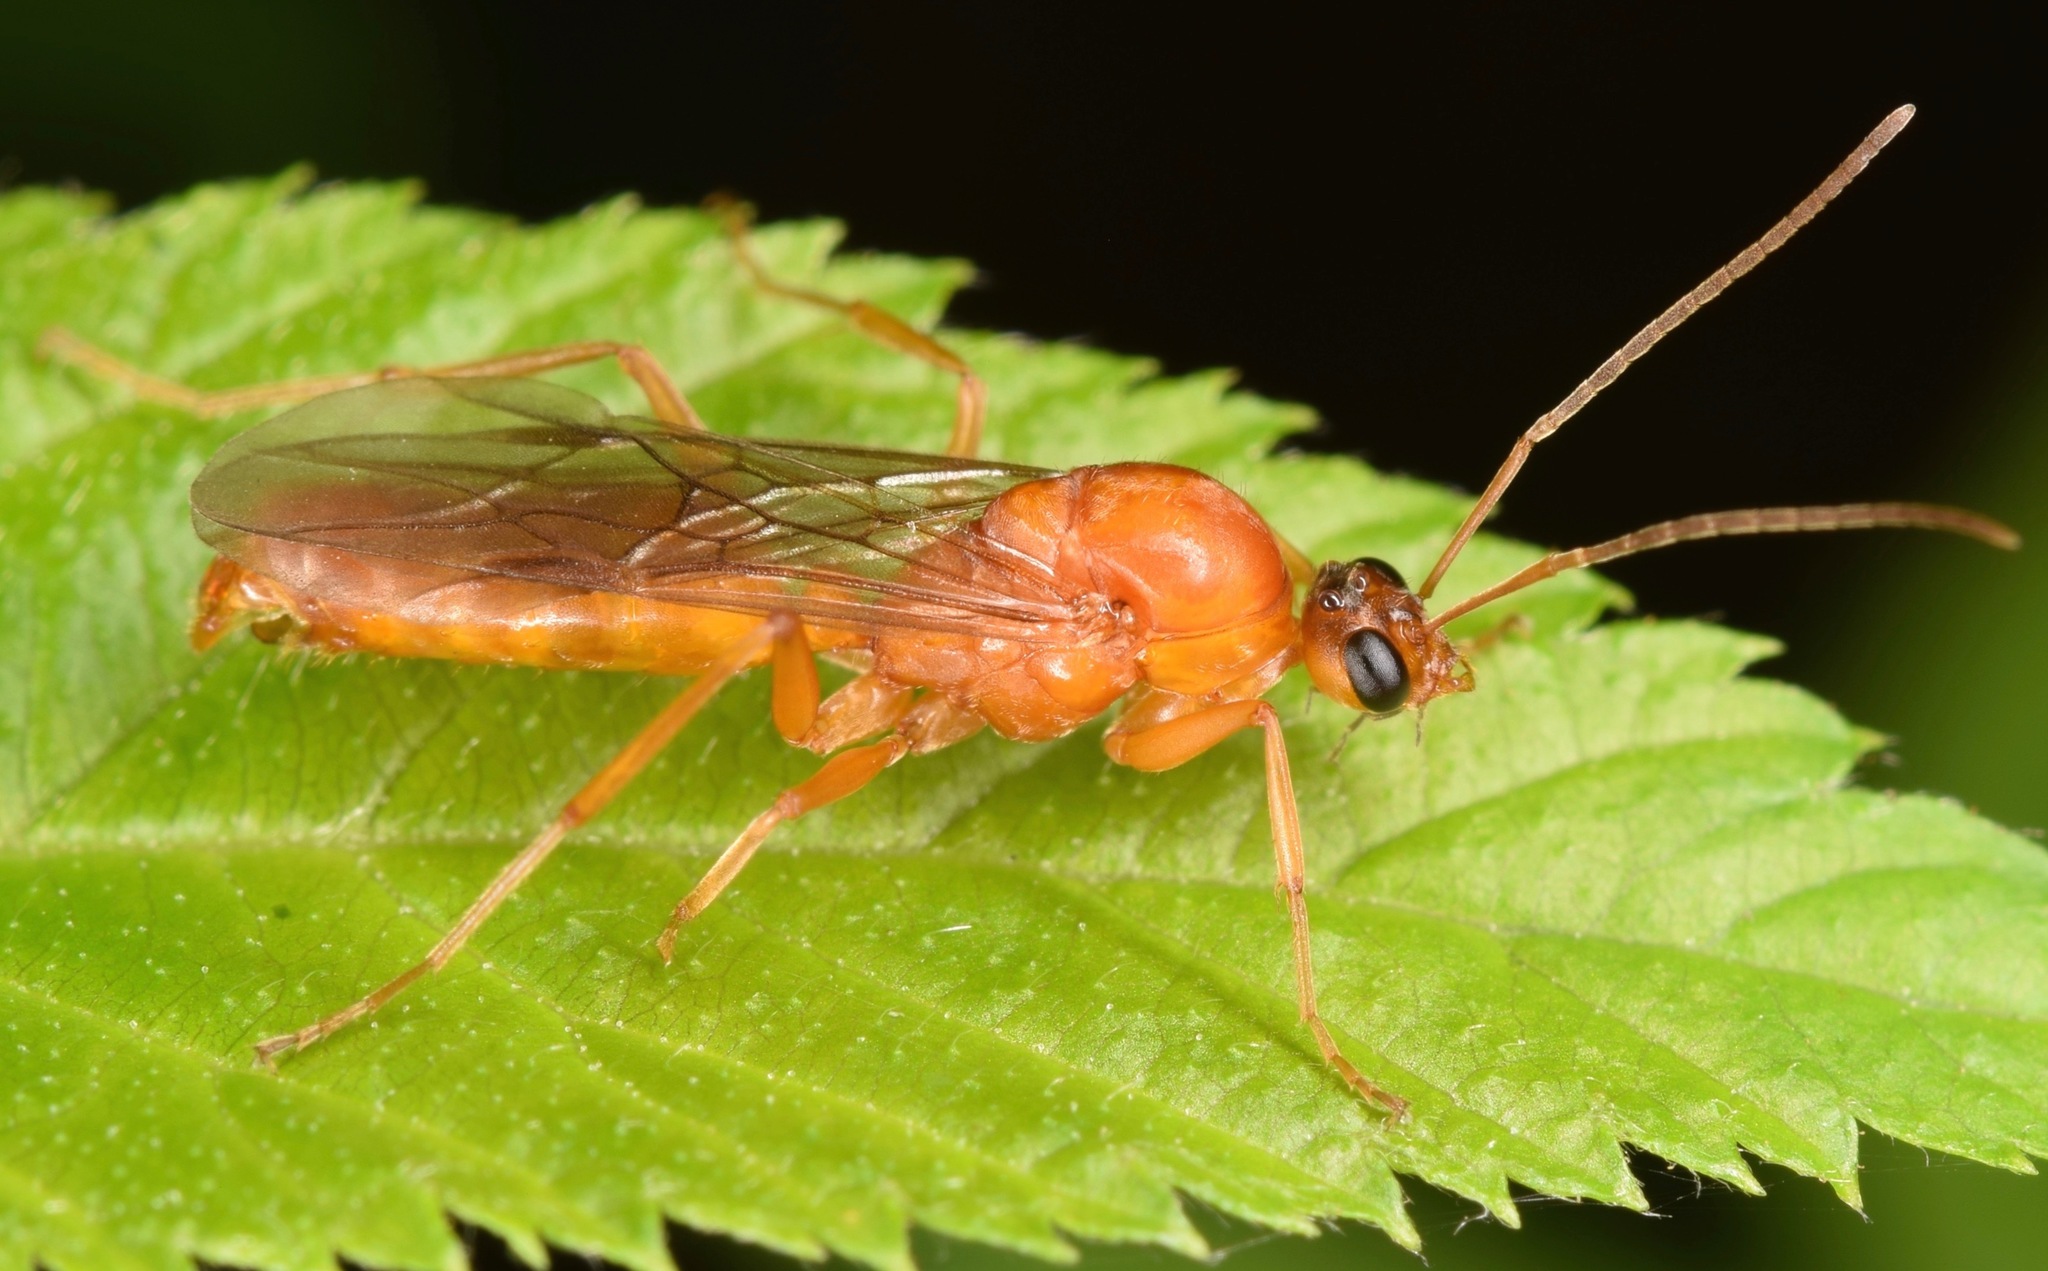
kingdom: Animalia
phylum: Arthropoda
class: Insecta
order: Hymenoptera
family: Formicidae
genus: Formica
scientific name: Formica pallidefulva
